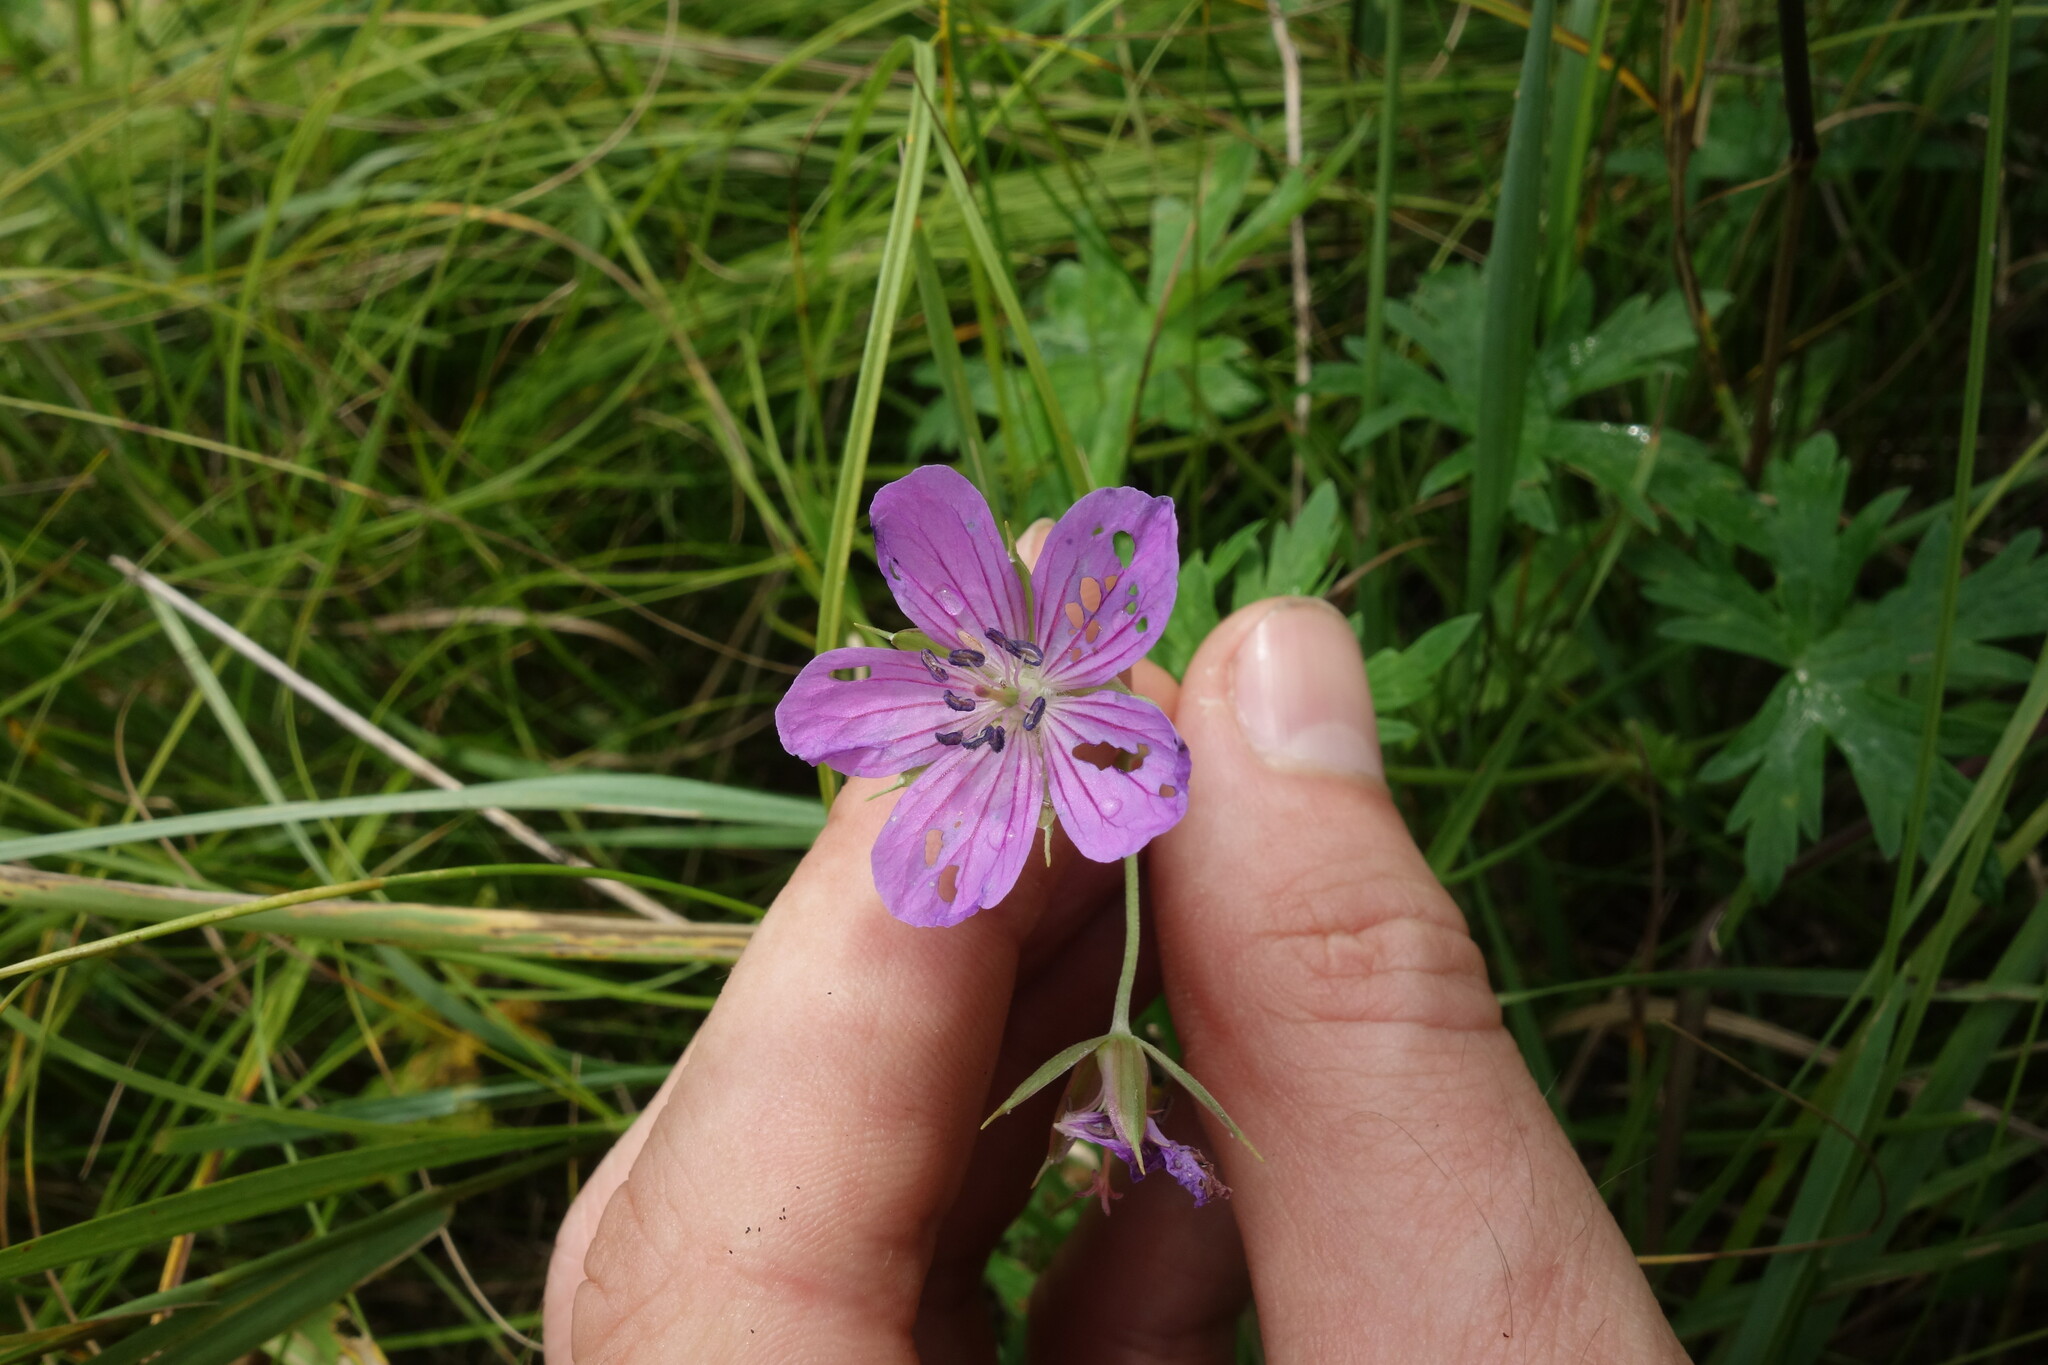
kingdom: Plantae
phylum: Tracheophyta
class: Magnoliopsida
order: Geraniales
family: Geraniaceae
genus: Geranium
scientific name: Geranium collinum
